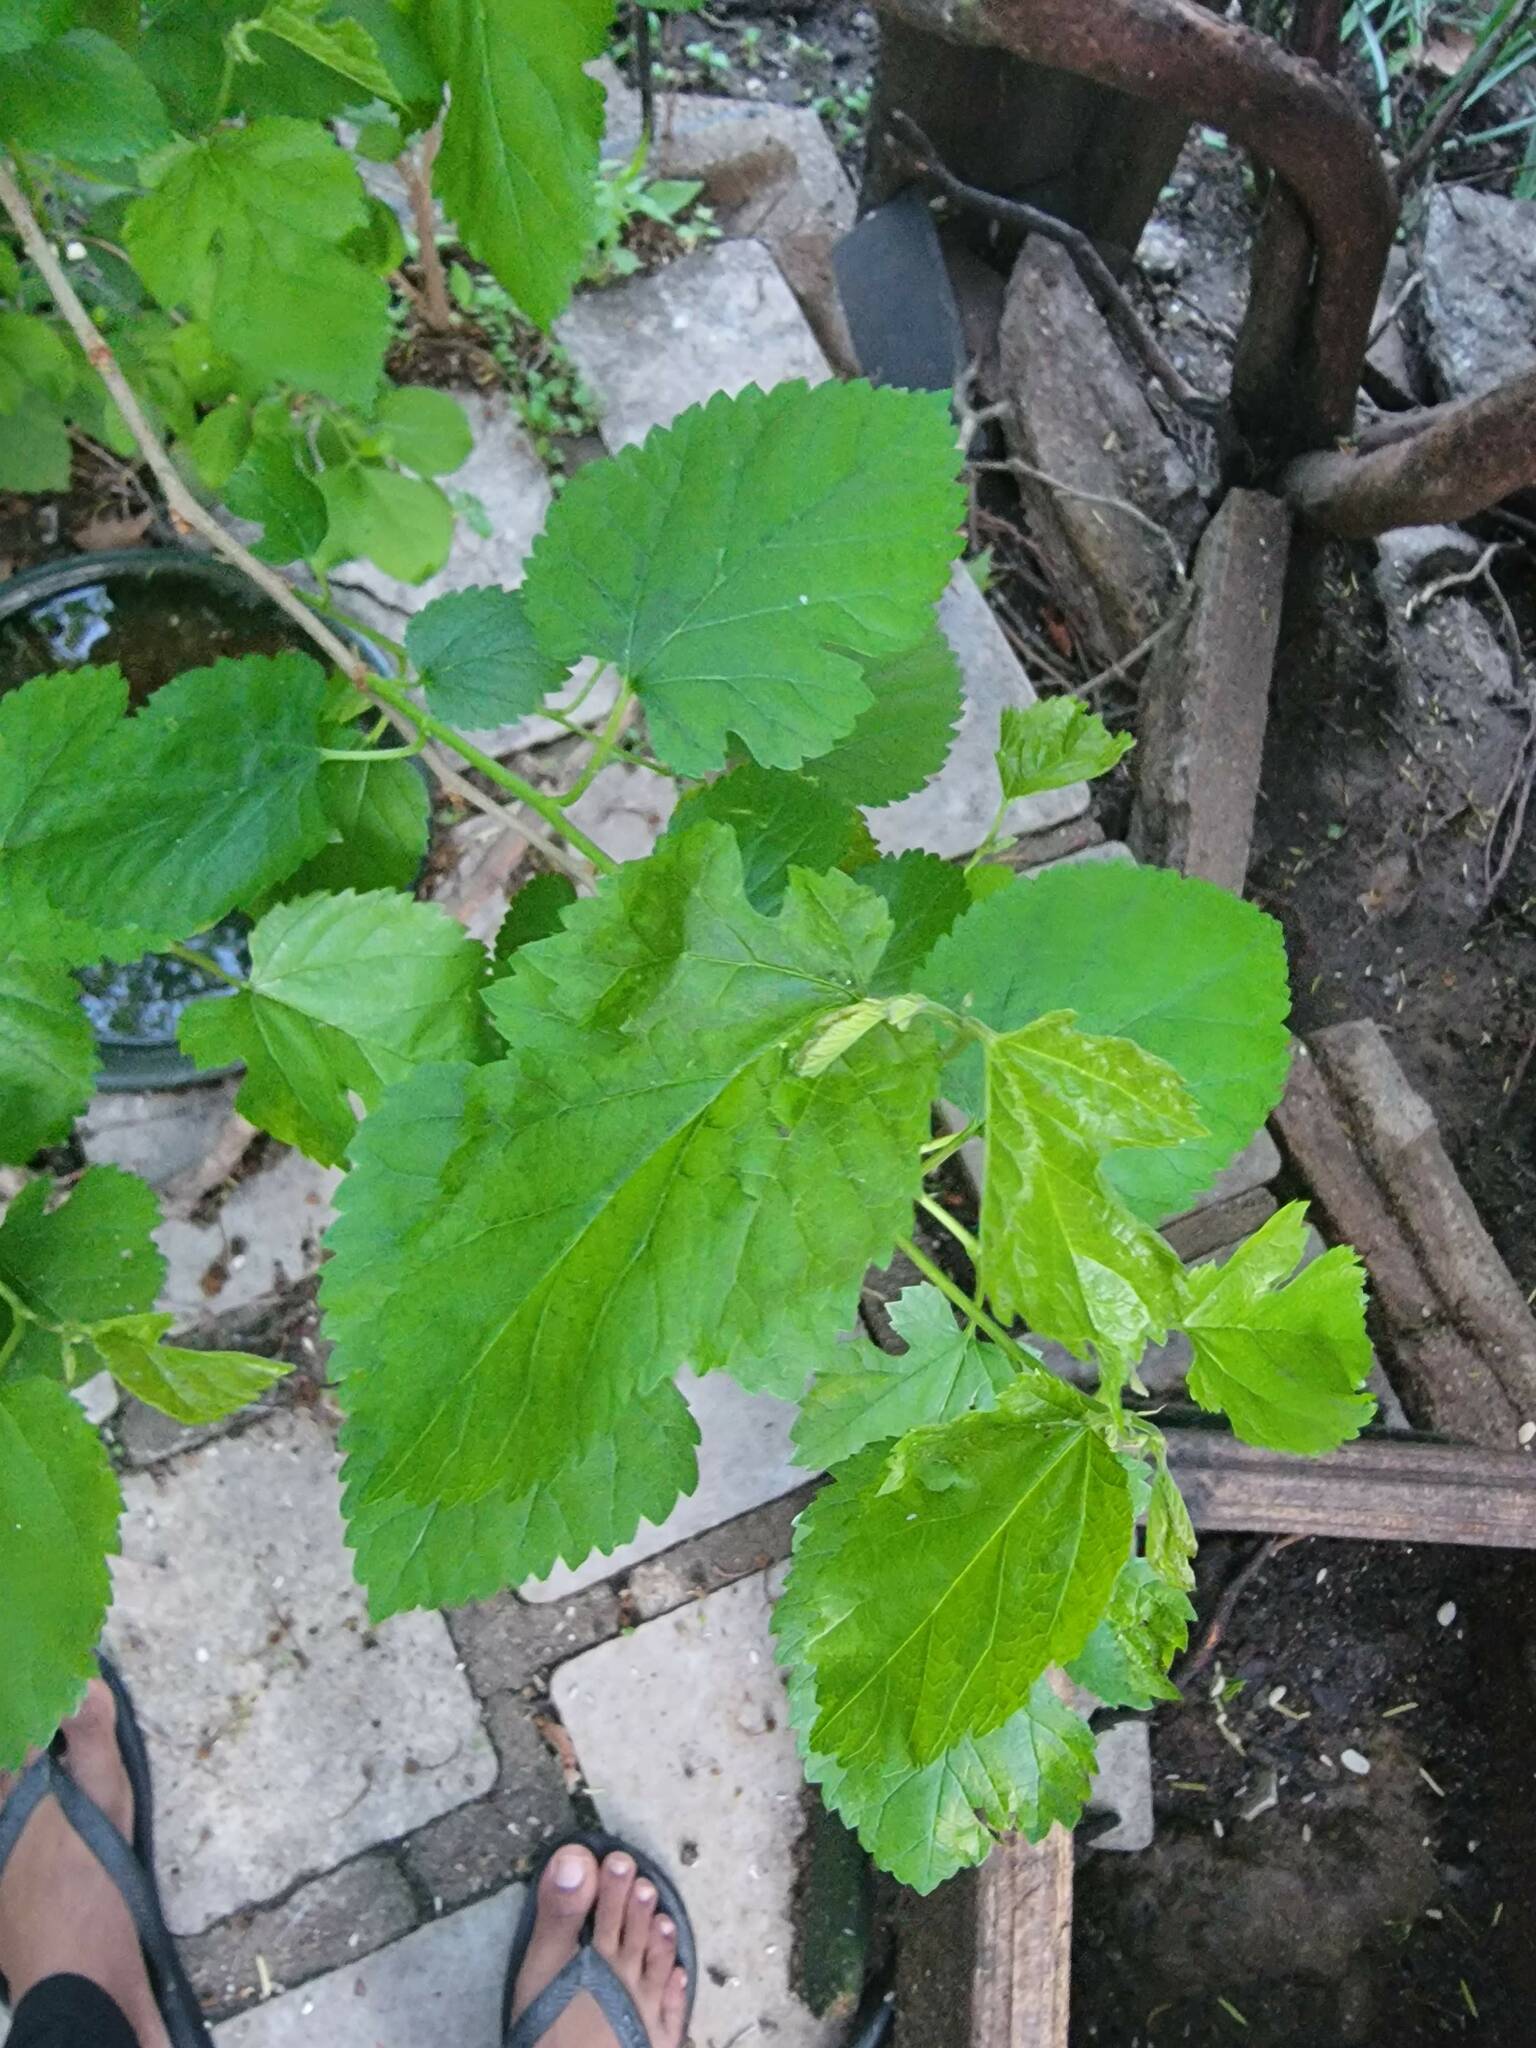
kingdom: Plantae
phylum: Tracheophyta
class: Magnoliopsida
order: Rosales
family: Moraceae
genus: Morus
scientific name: Morus alba
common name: White mulberry
